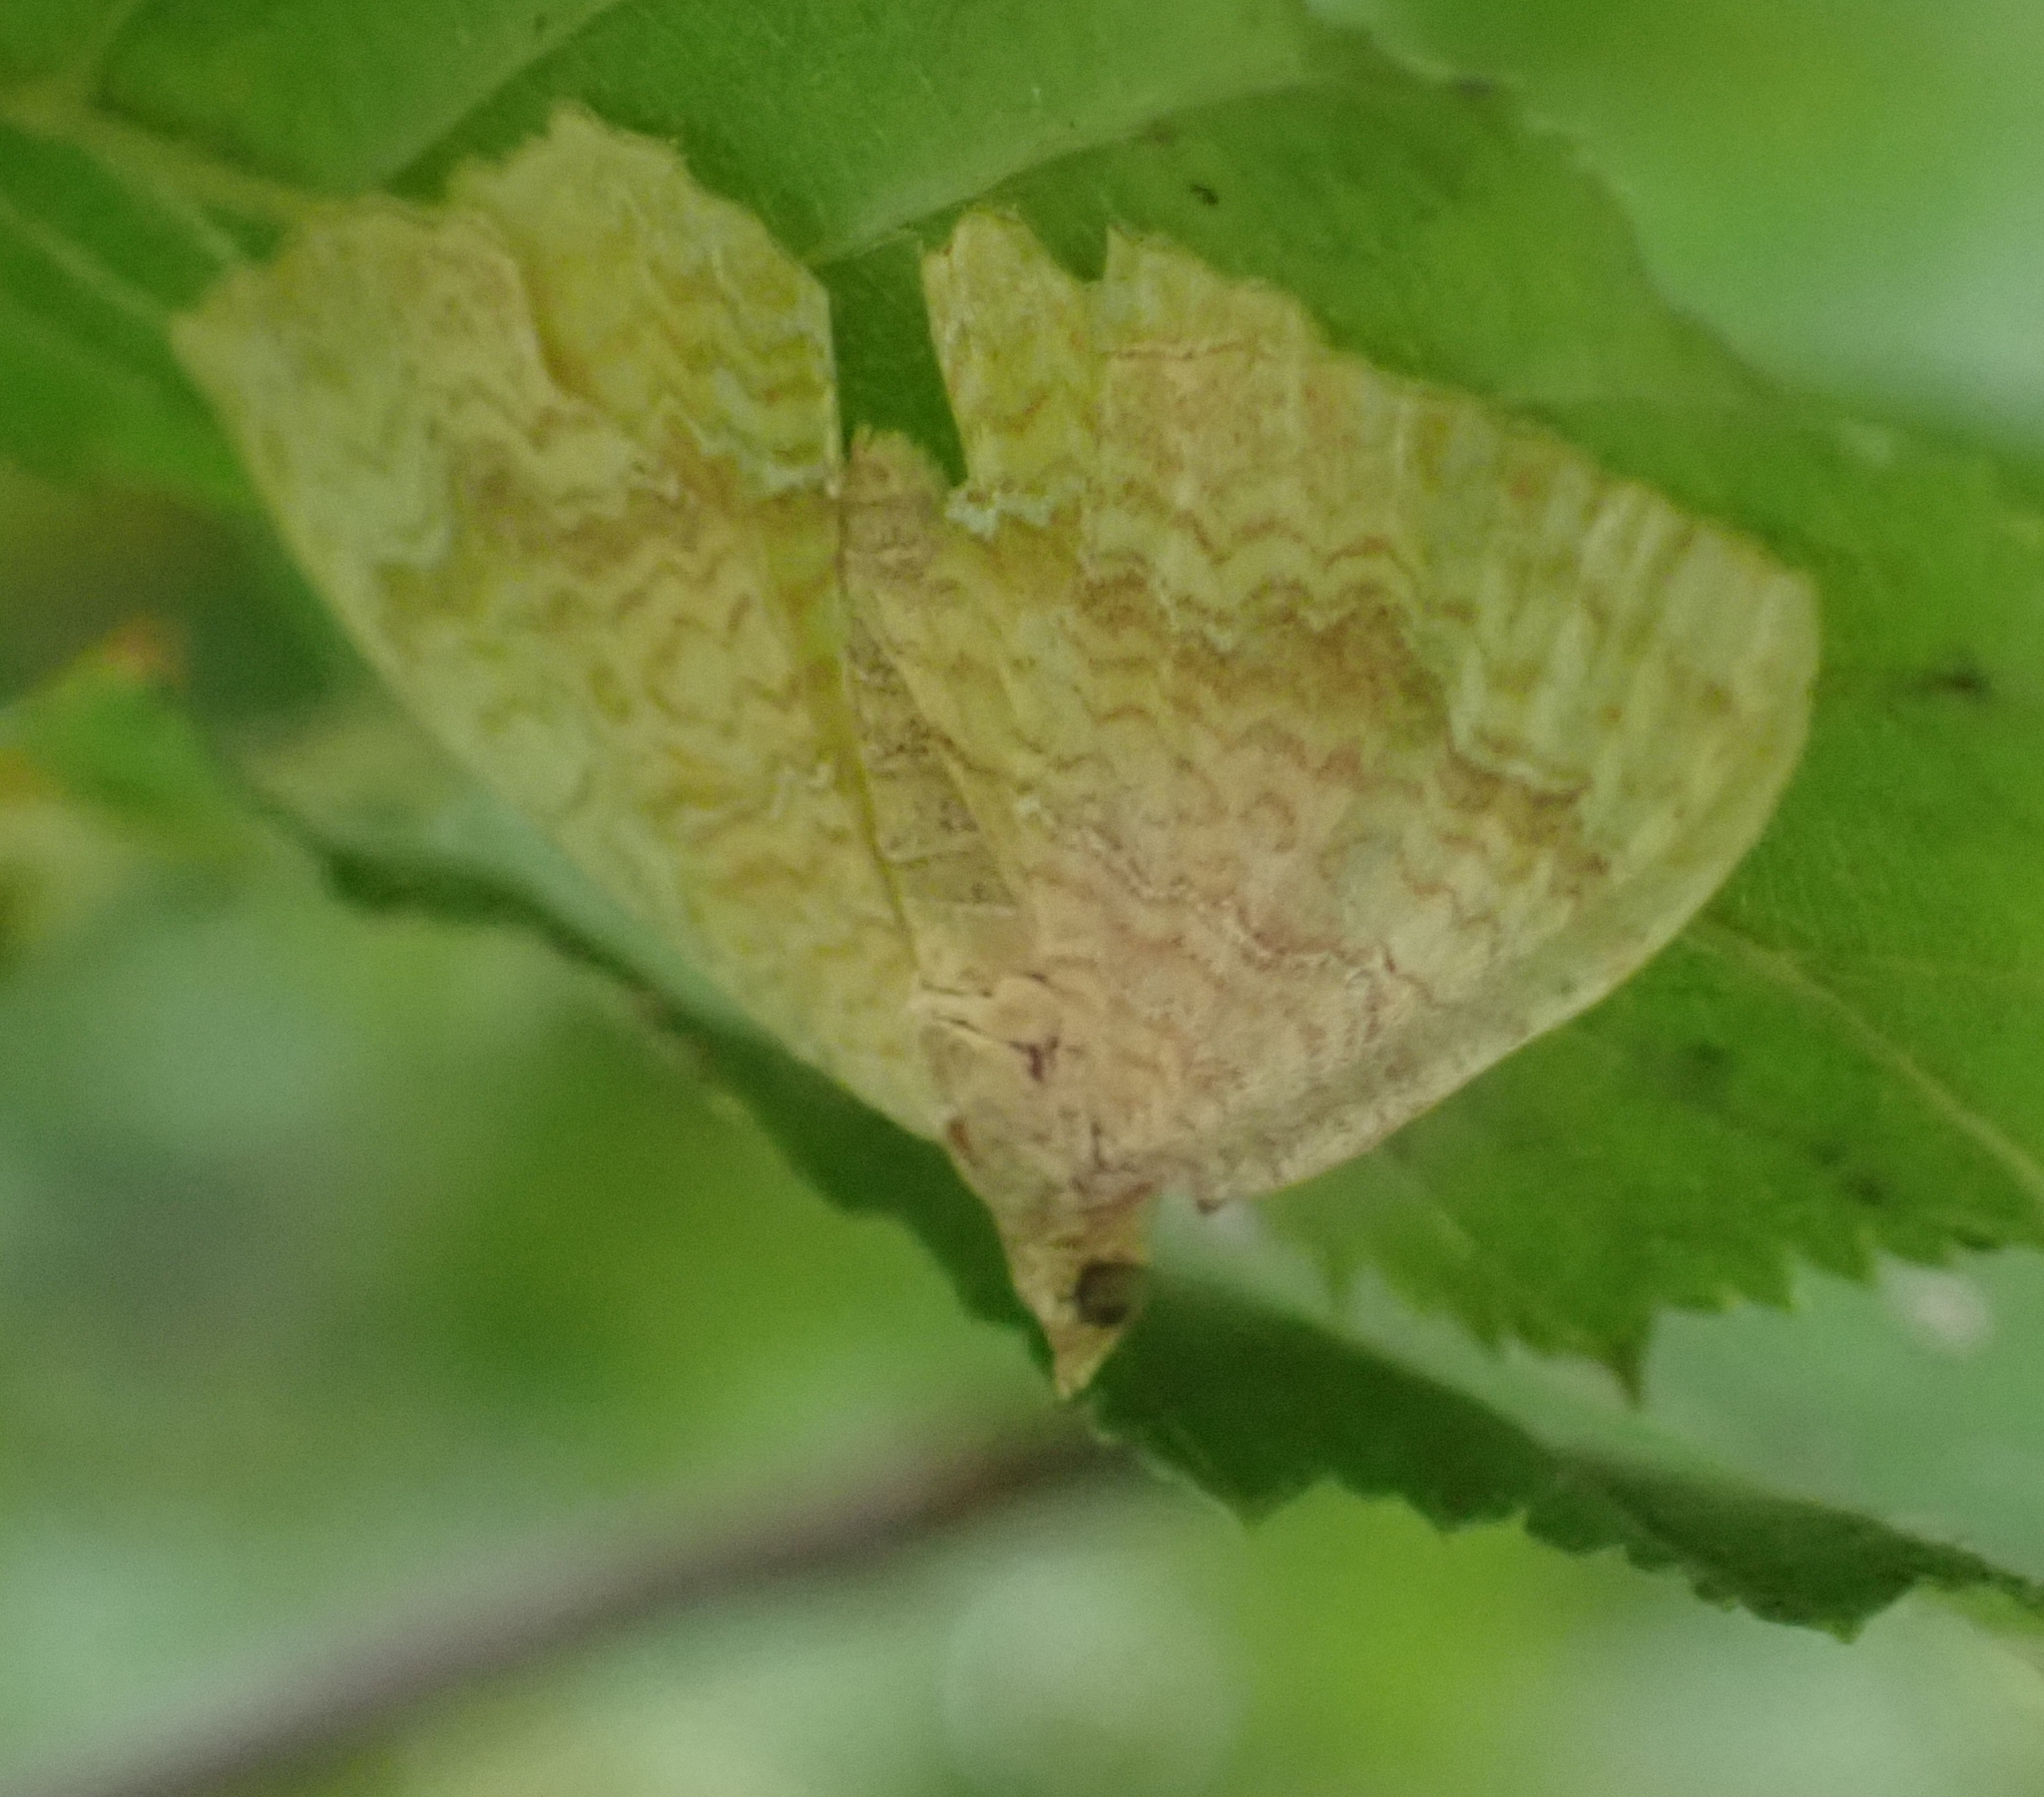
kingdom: Animalia
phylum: Arthropoda
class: Insecta
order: Lepidoptera
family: Geometridae
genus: Camptogramma
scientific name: Camptogramma bilineata
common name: Yellow shell
